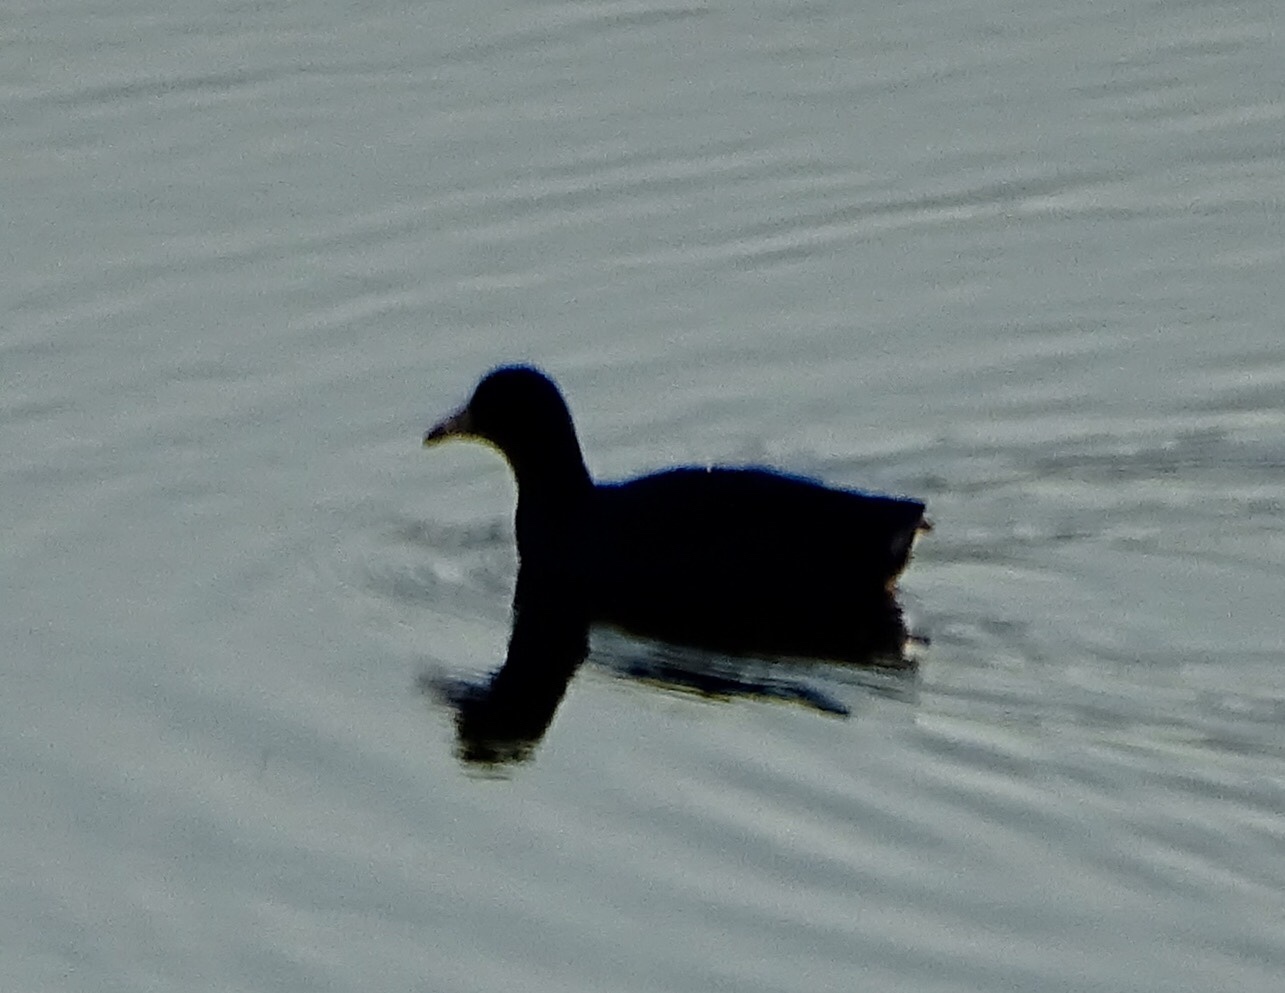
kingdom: Animalia
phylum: Chordata
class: Aves
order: Gruiformes
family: Rallidae
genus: Fulica
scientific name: Fulica americana
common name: American coot
